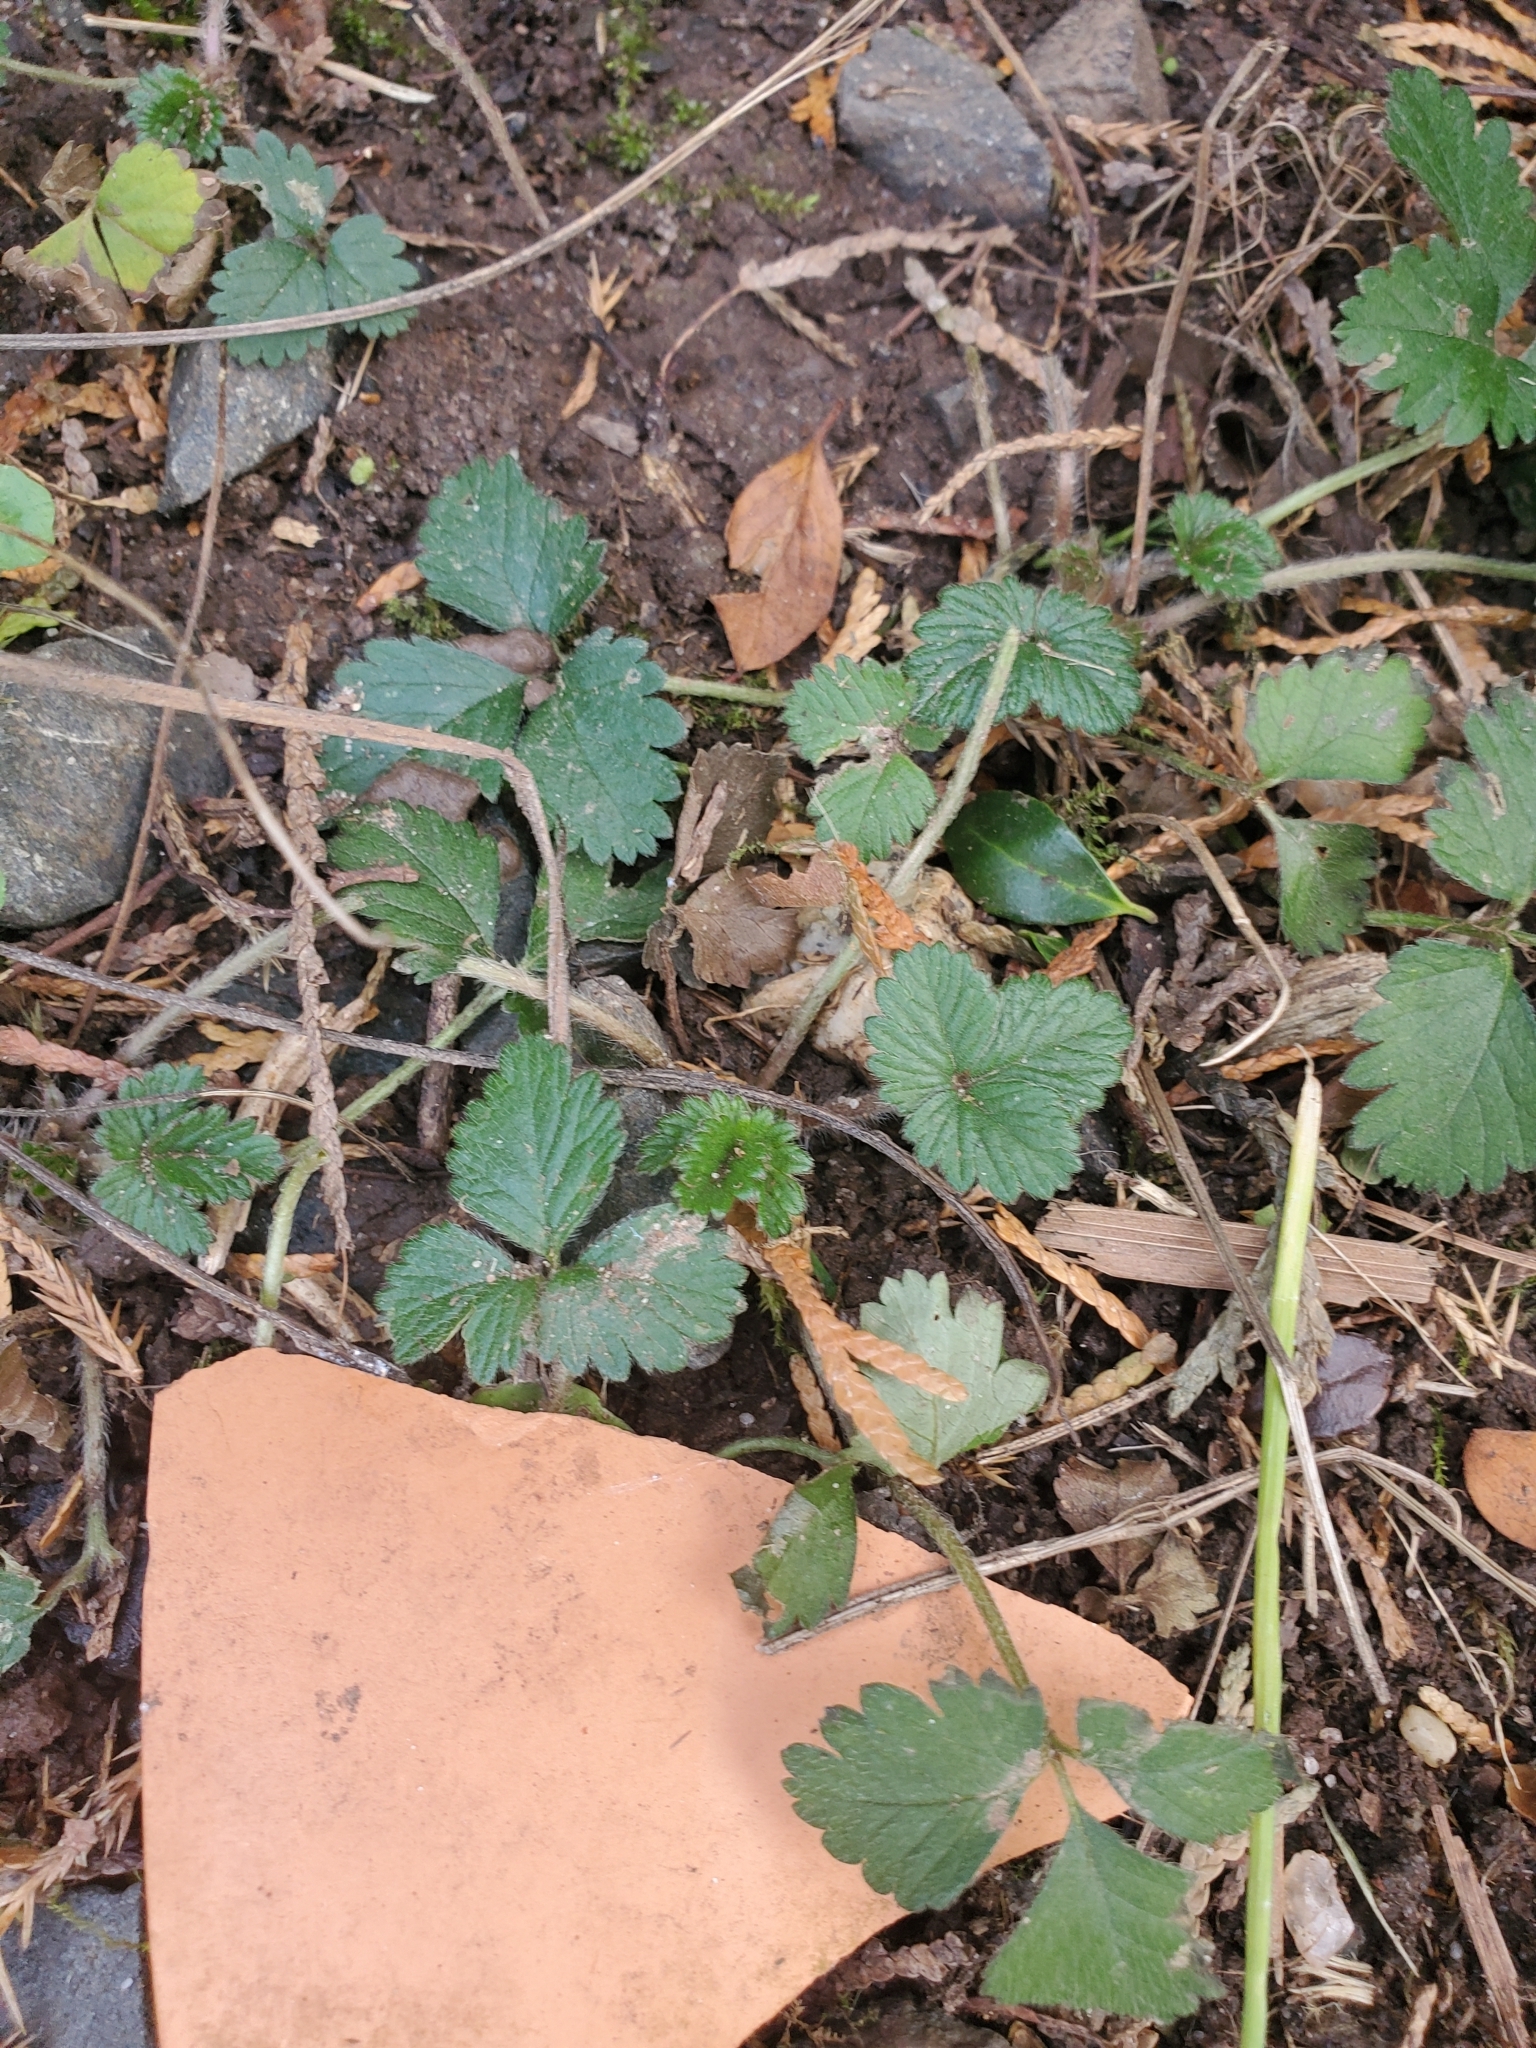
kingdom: Plantae
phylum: Tracheophyta
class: Magnoliopsida
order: Rosales
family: Rosaceae
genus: Potentilla
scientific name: Potentilla indica
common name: Yellow-flowered strawberry
